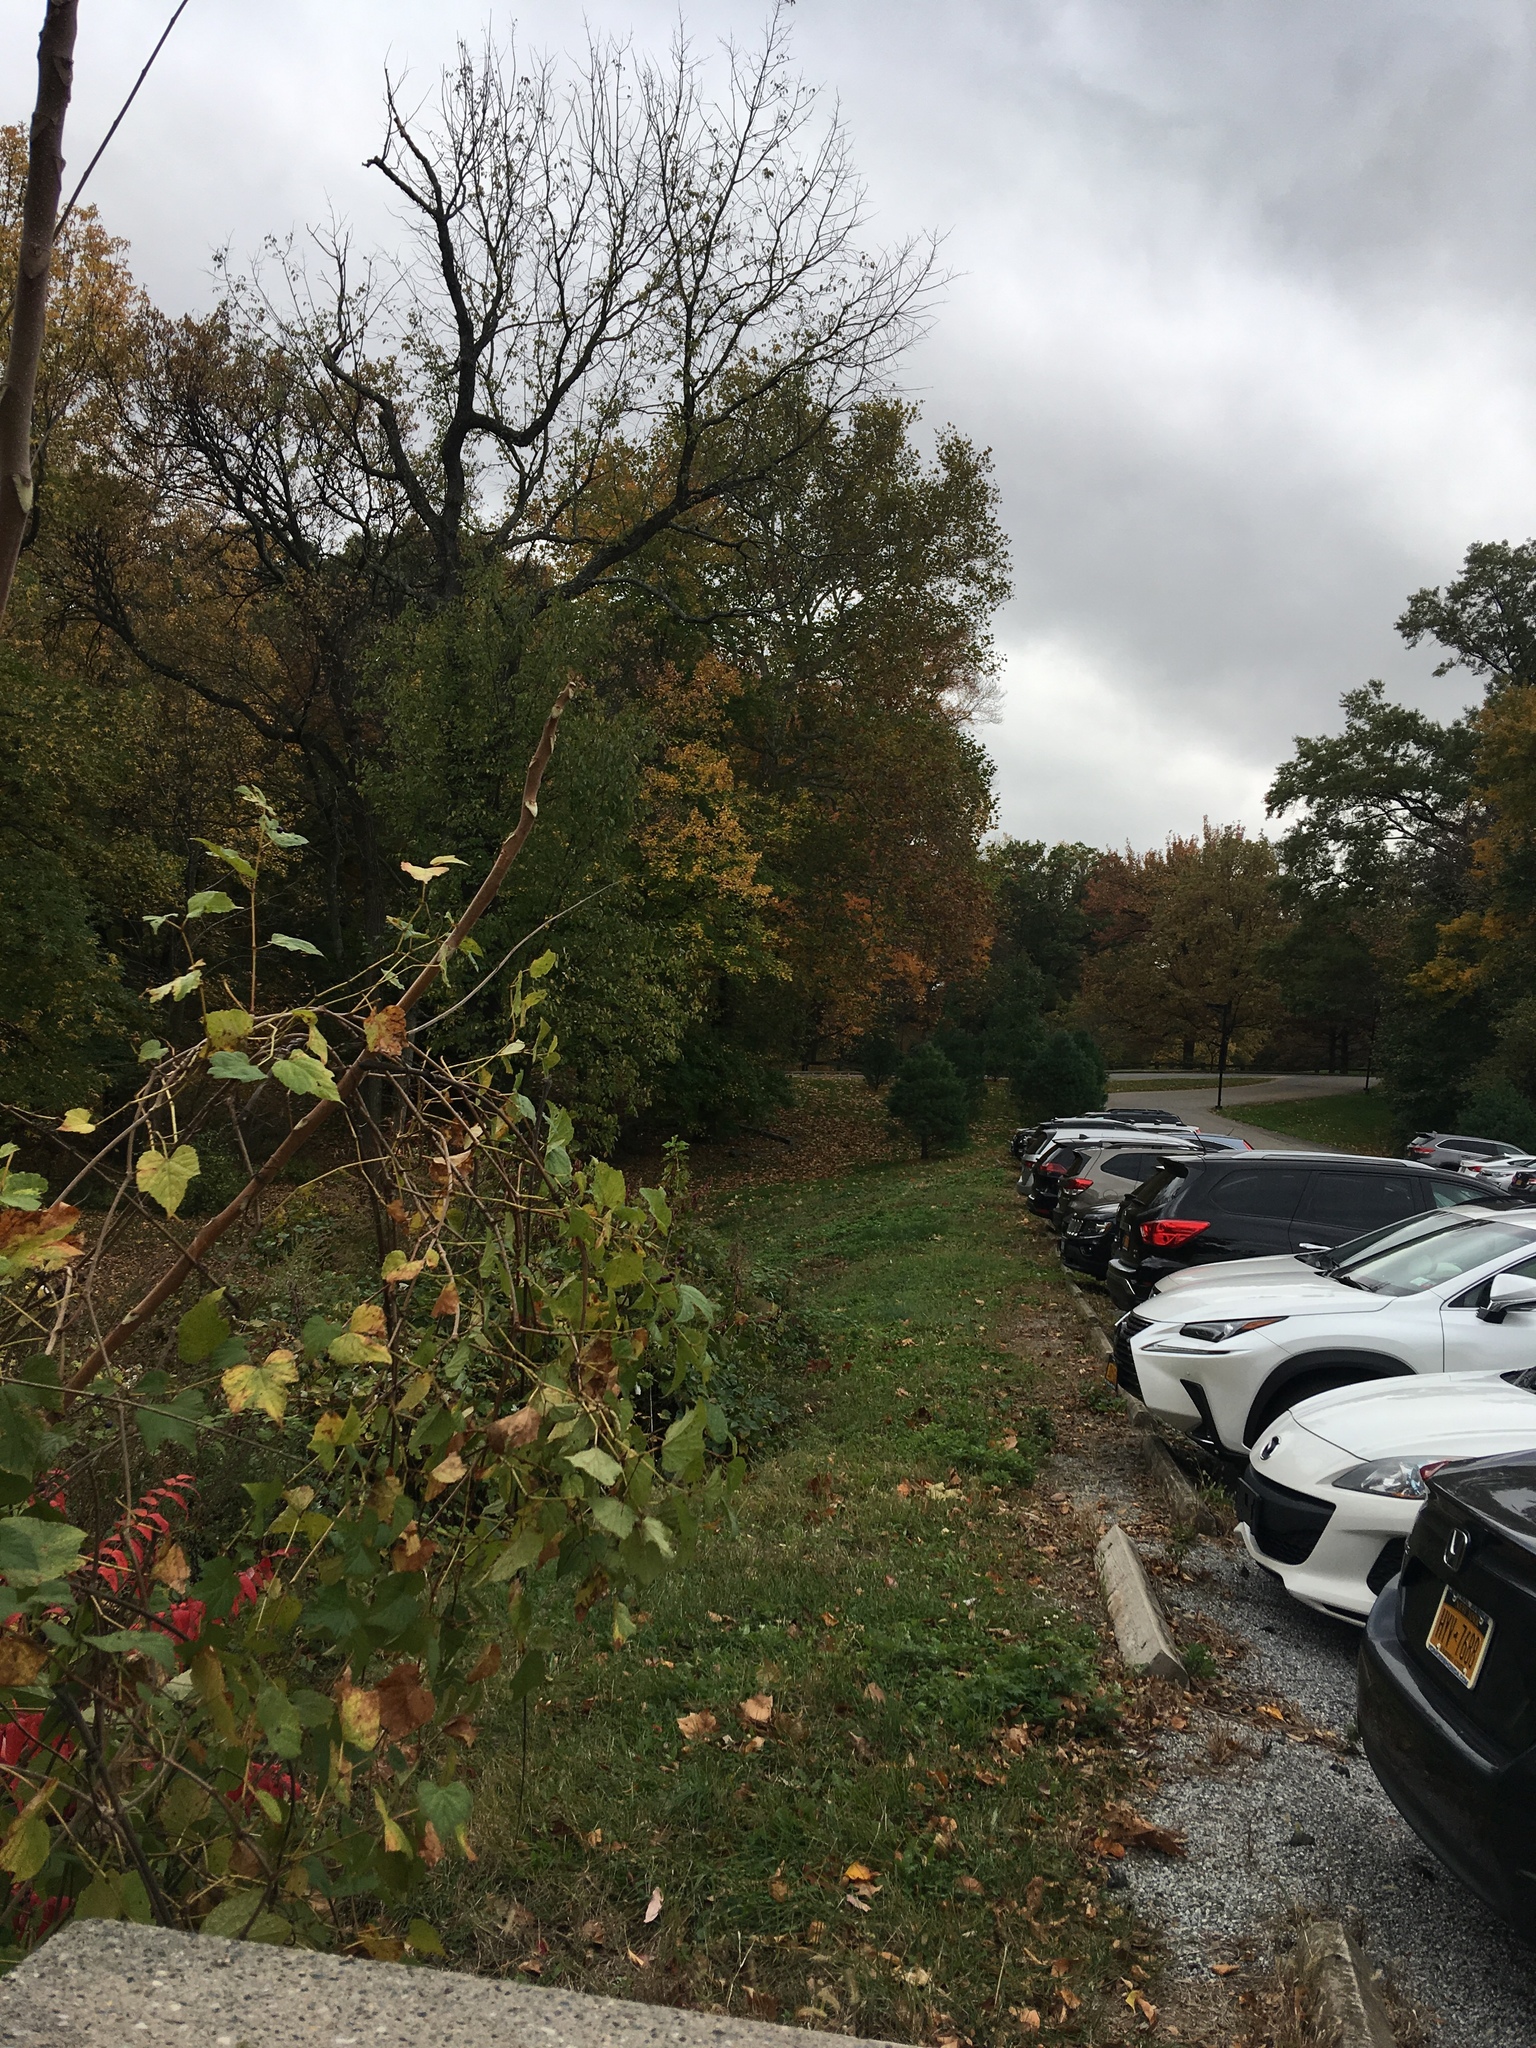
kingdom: Plantae
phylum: Tracheophyta
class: Magnoliopsida
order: Vitales
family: Vitaceae
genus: Ampelopsis
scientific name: Ampelopsis glandulosa
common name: Amur peppervine
